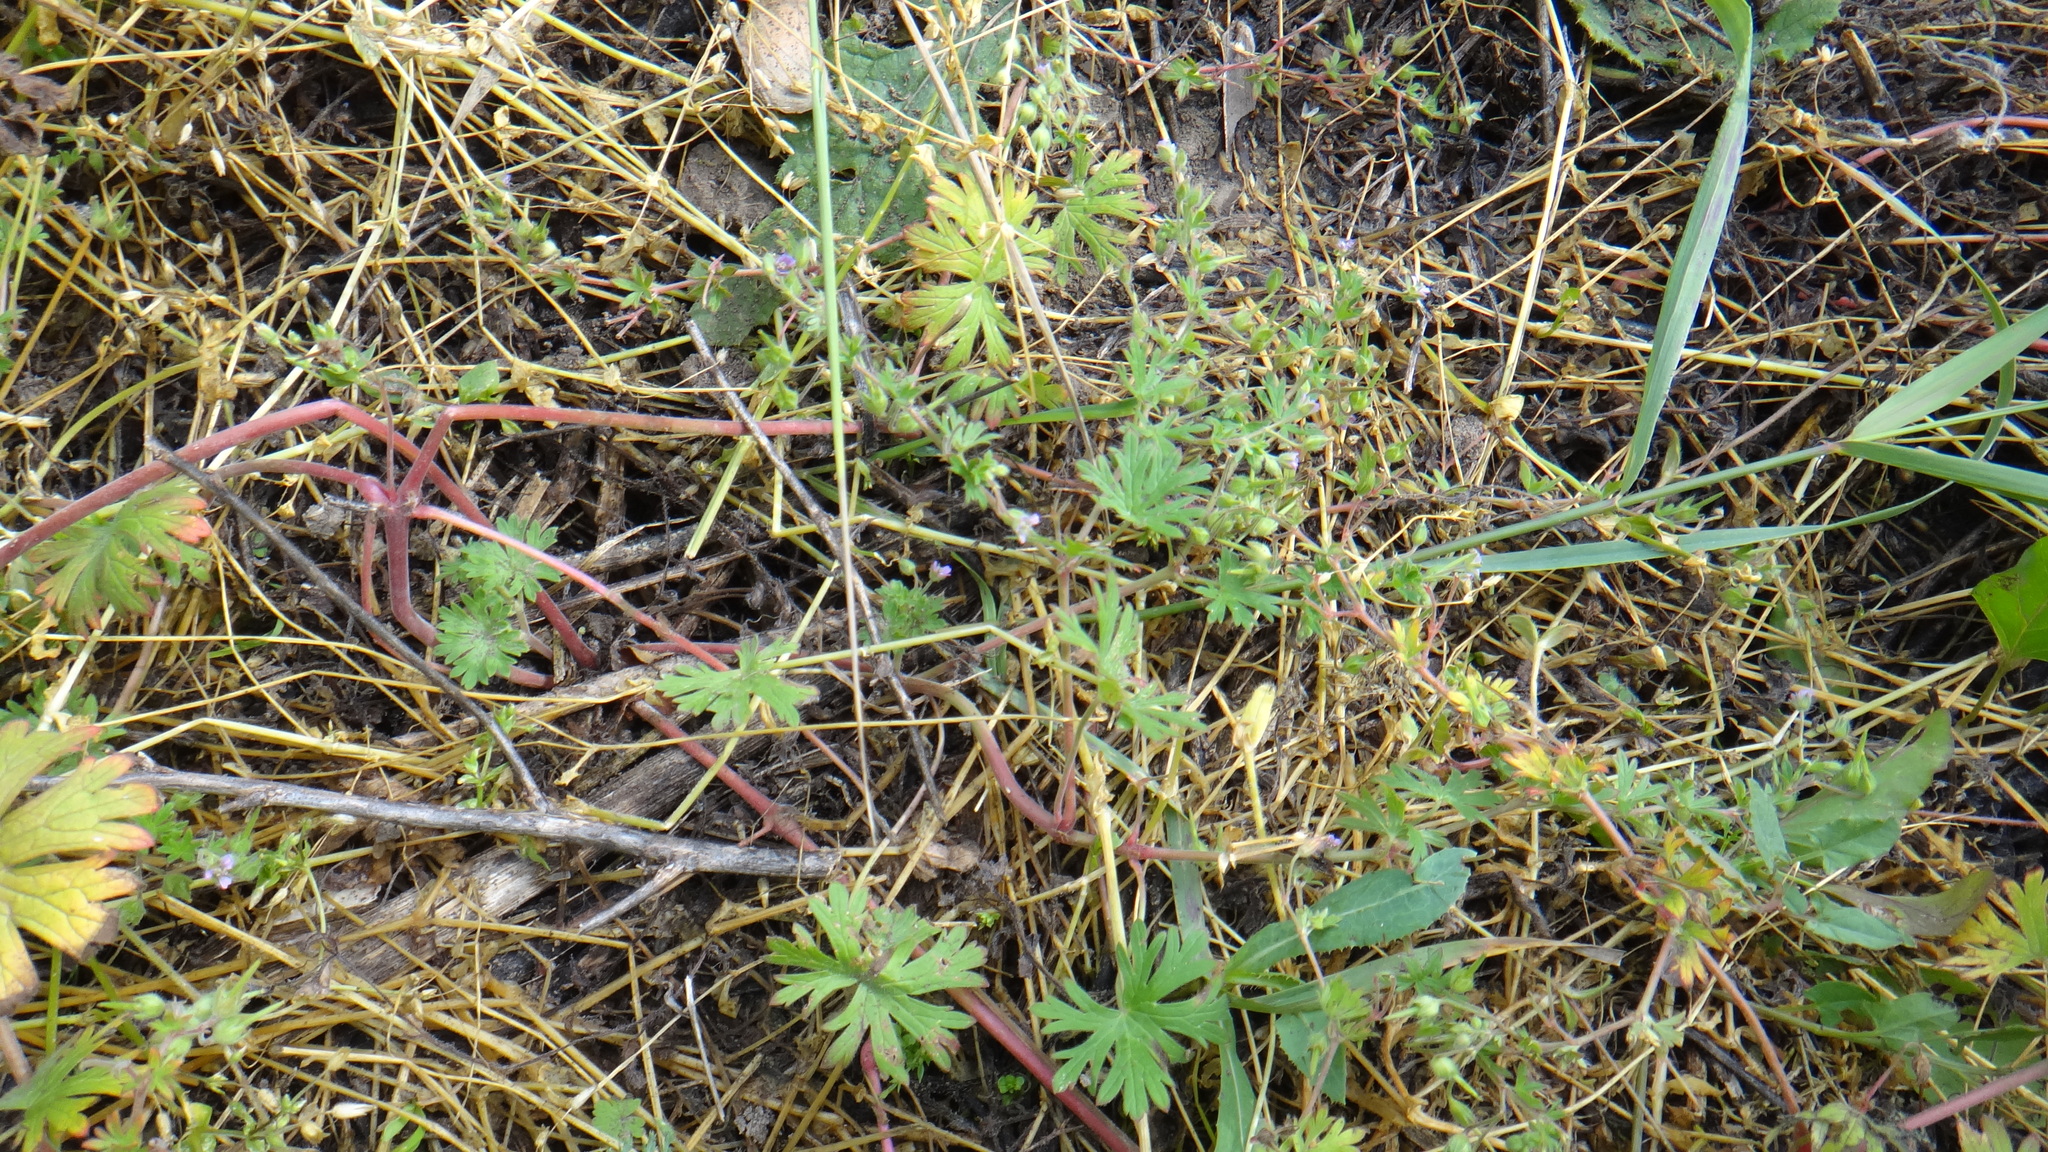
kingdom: Plantae
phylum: Tracheophyta
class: Magnoliopsida
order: Geraniales
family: Geraniaceae
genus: Geranium
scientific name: Geranium pusillum
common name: Small geranium
